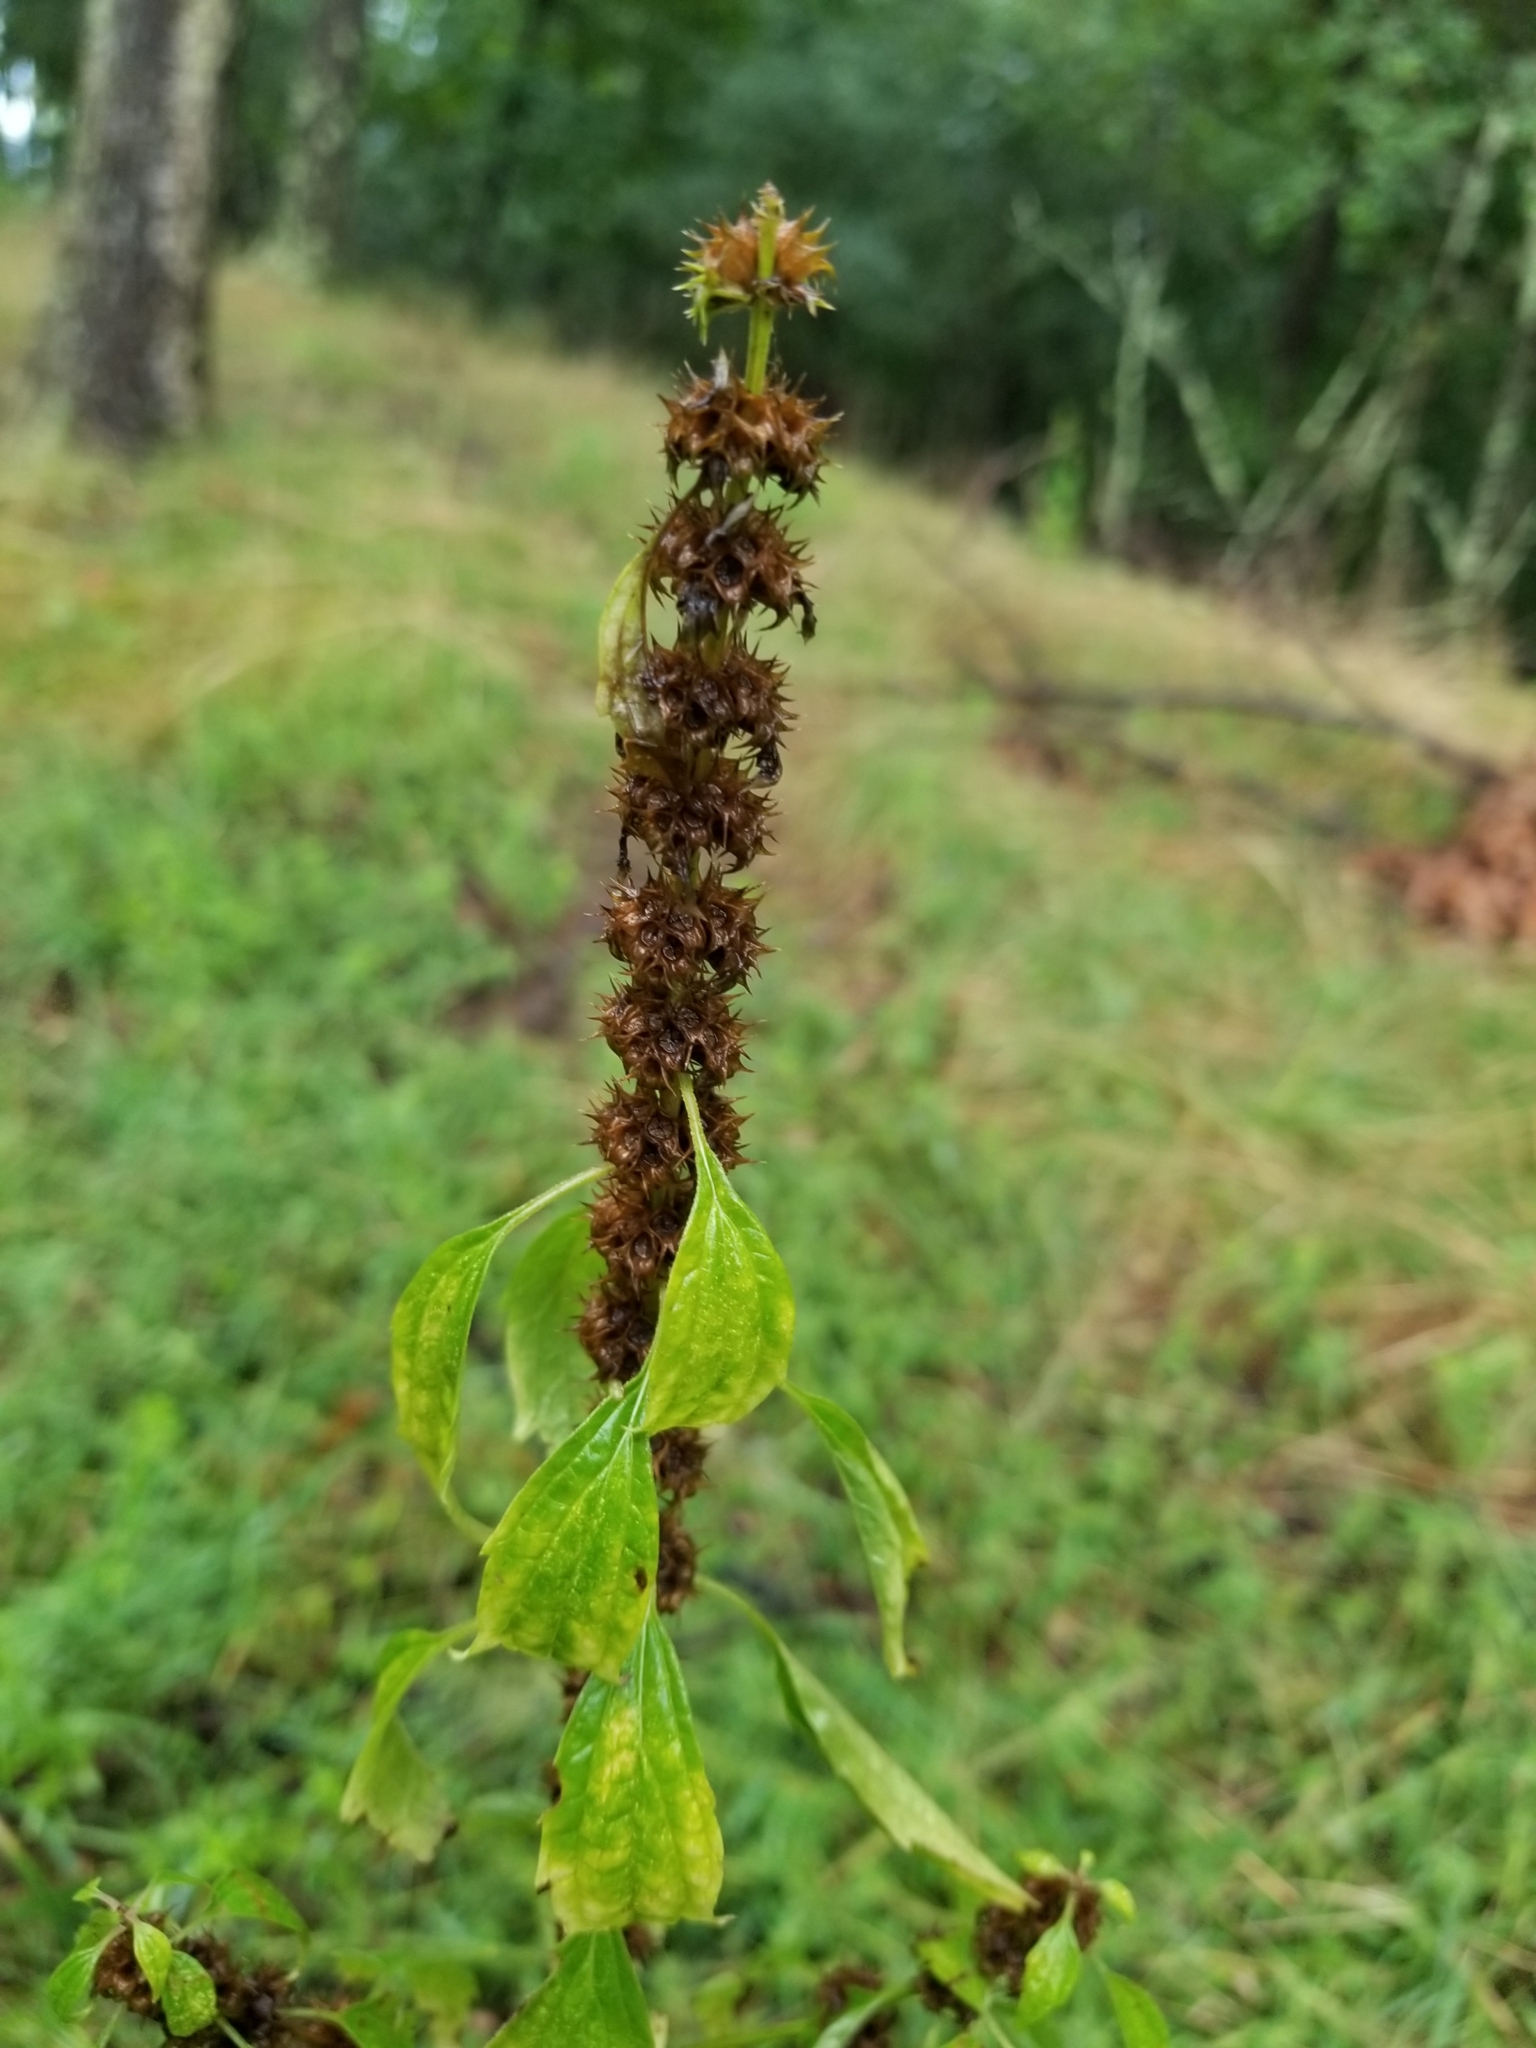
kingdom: Plantae
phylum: Tracheophyta
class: Magnoliopsida
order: Lamiales
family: Lamiaceae
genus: Leonurus
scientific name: Leonurus cardiaca
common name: Motherwort
